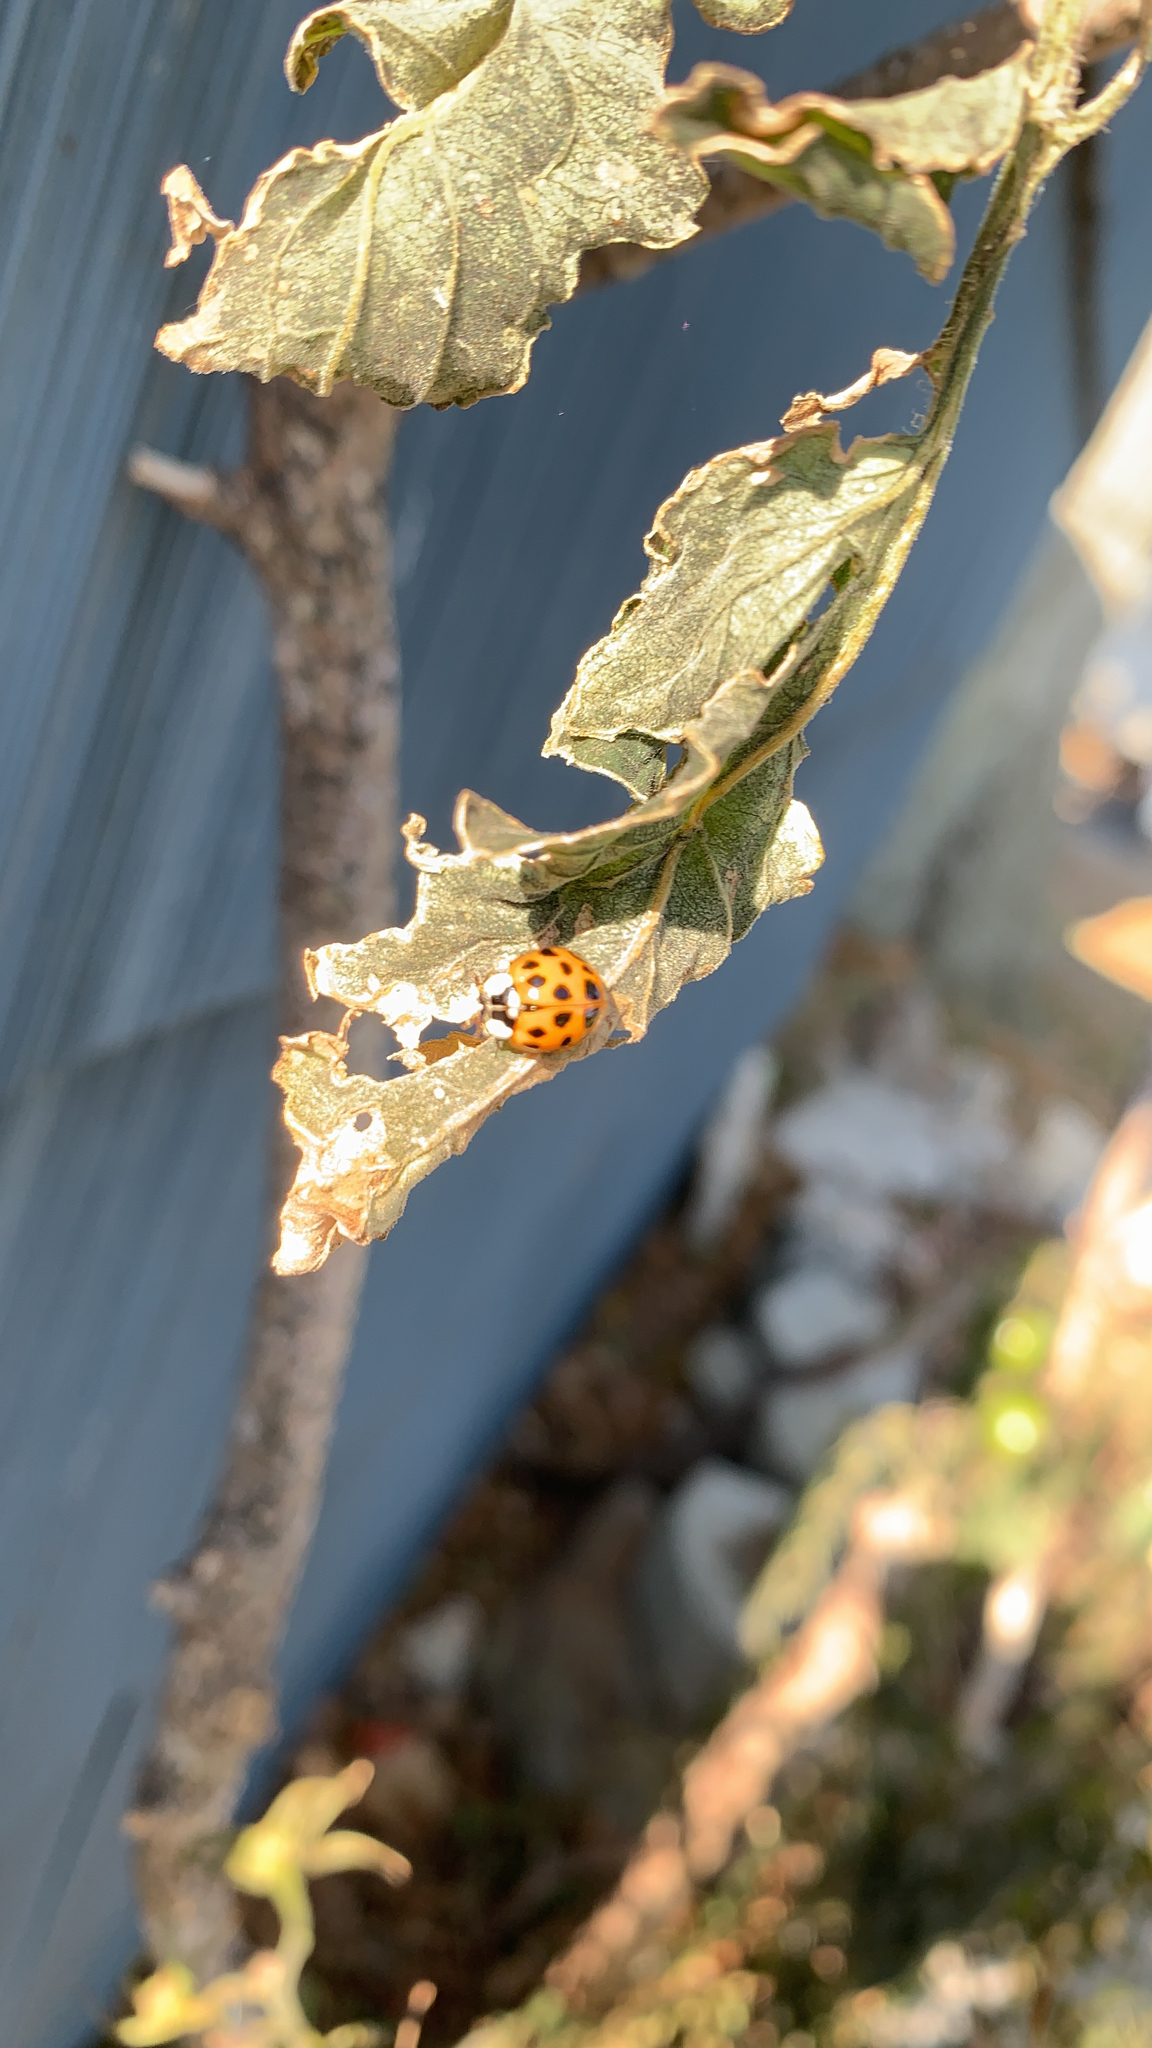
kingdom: Animalia
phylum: Arthropoda
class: Insecta
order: Coleoptera
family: Coccinellidae
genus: Harmonia
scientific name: Harmonia axyridis
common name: Harlequin ladybird
